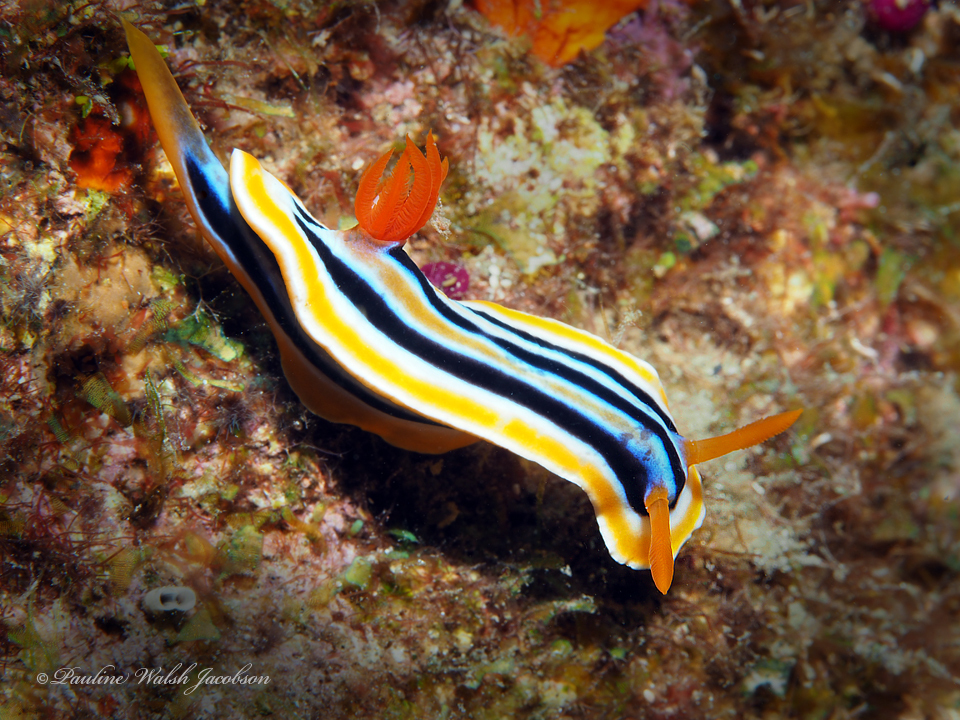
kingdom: Animalia
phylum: Mollusca
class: Gastropoda
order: Nudibranchia
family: Chromodorididae
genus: Chromodoris
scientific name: Chromodoris colemani
